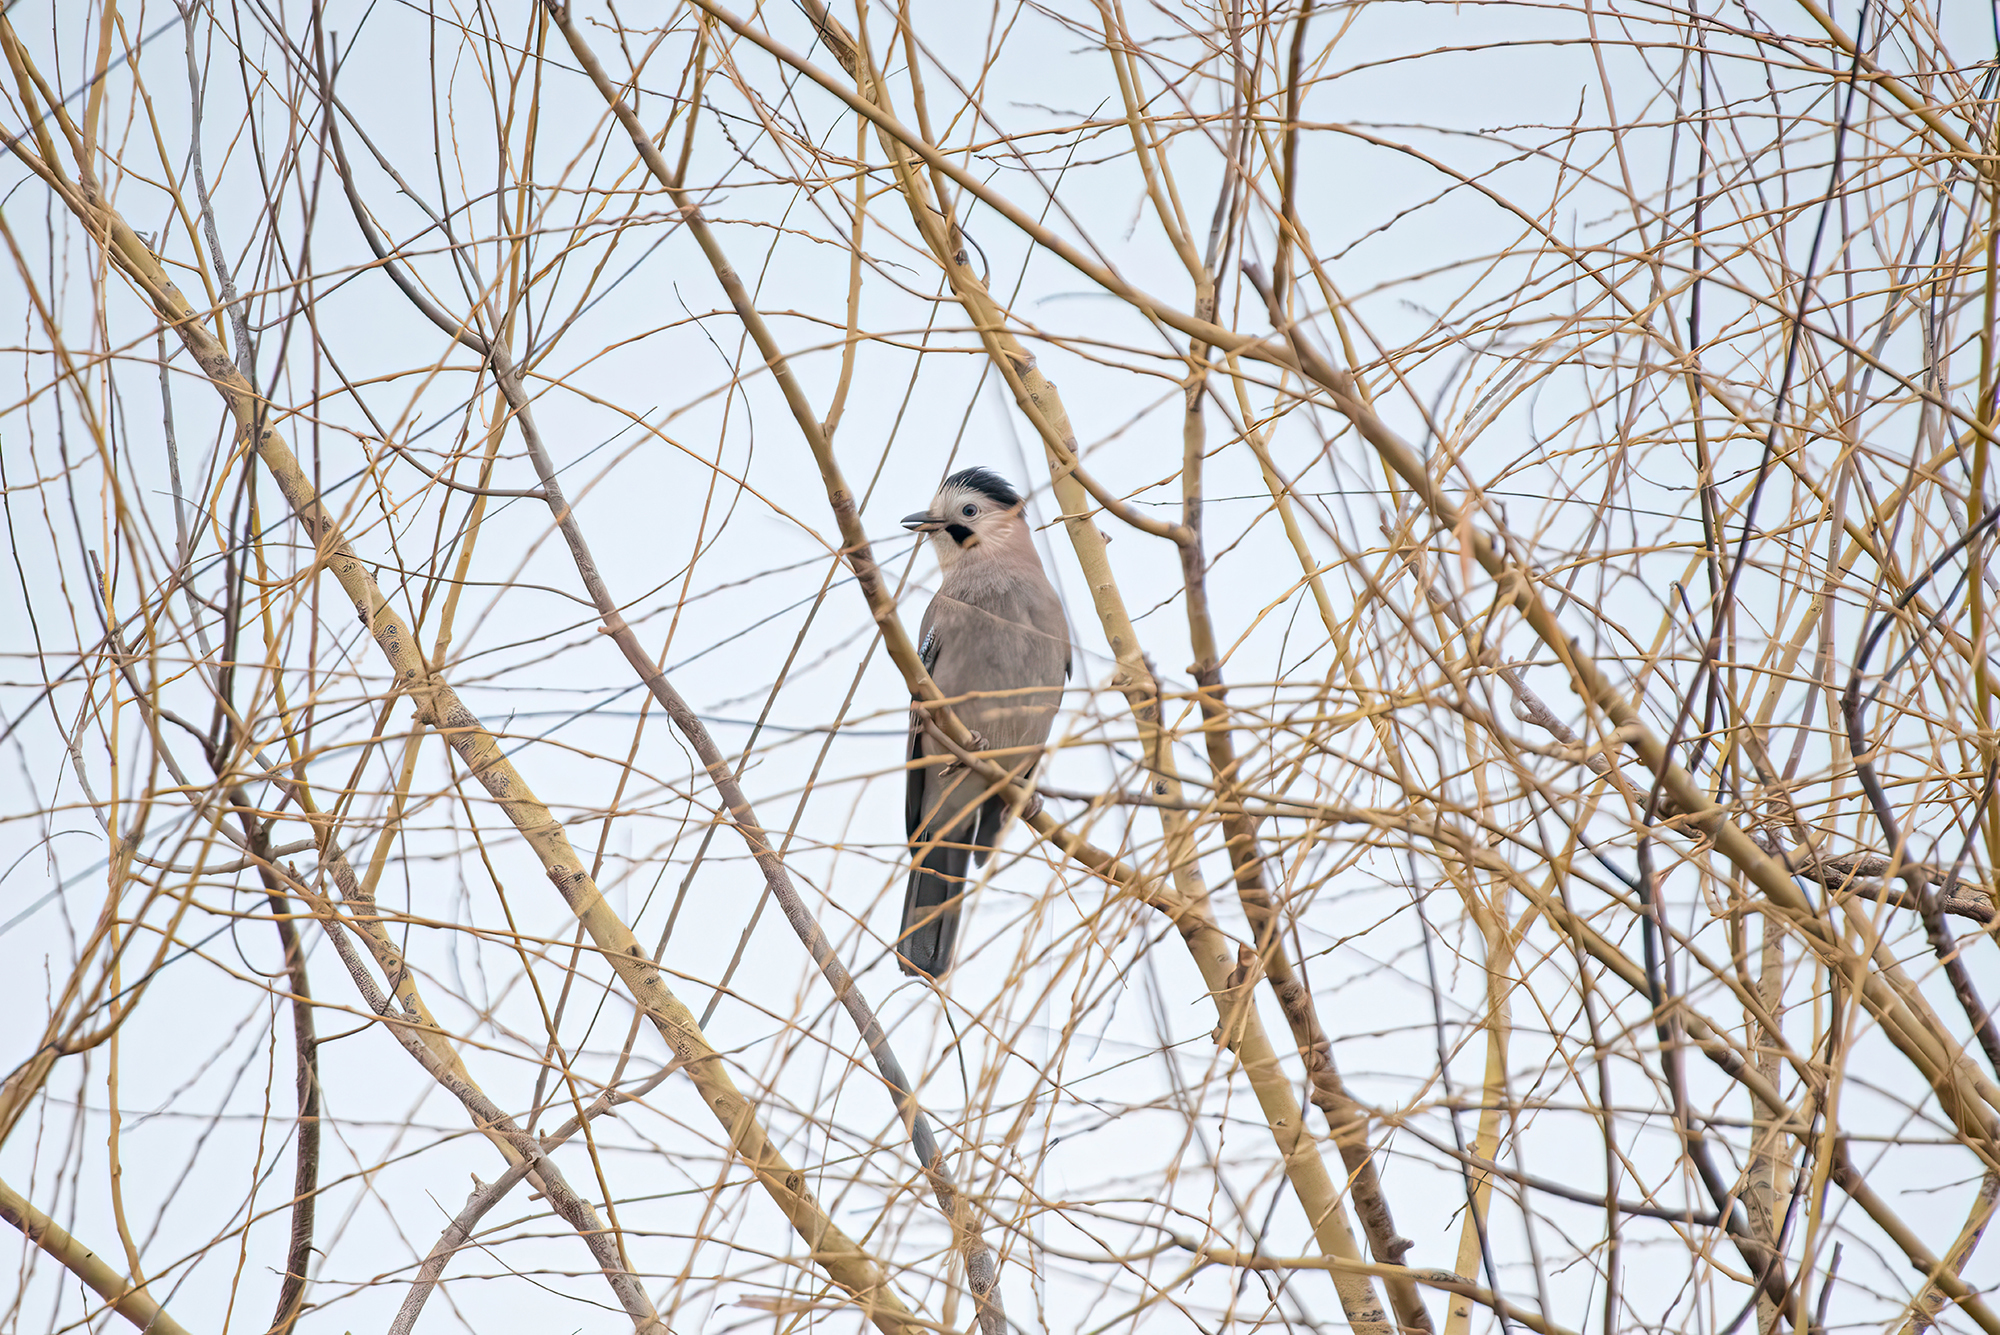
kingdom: Animalia
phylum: Chordata
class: Aves
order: Passeriformes
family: Corvidae
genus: Garrulus
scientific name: Garrulus glandarius
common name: Eurasian jay
